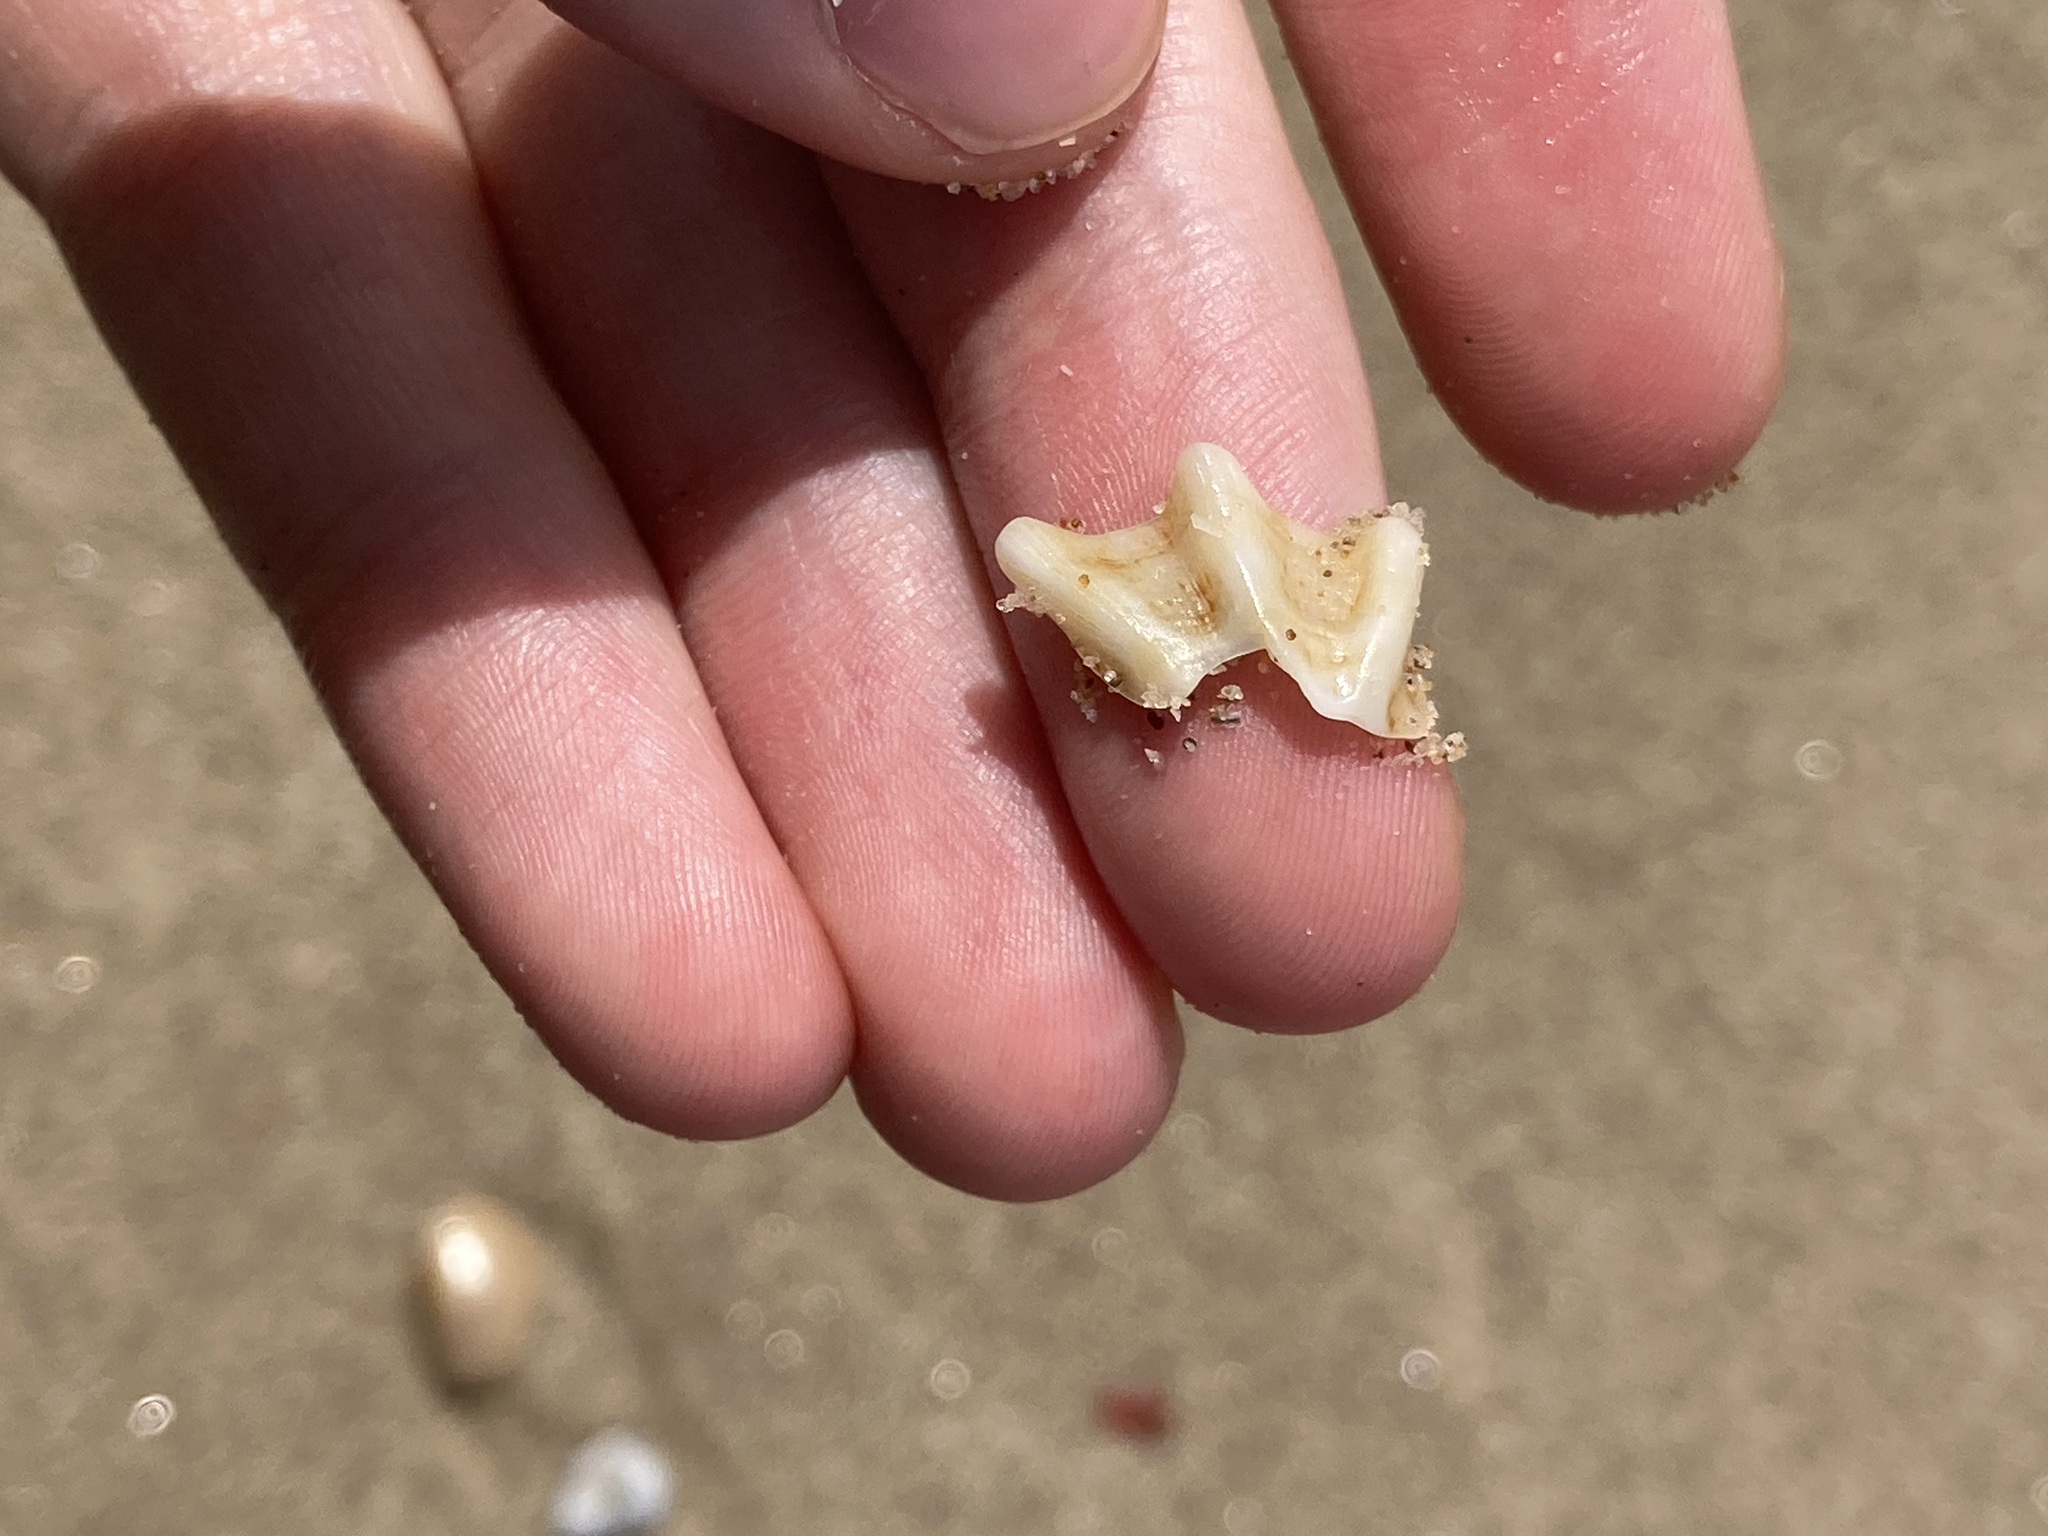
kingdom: Animalia
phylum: Mollusca
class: Gastropoda
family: Patellidae
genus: Scutellastra
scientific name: Scutellastra chapmani
